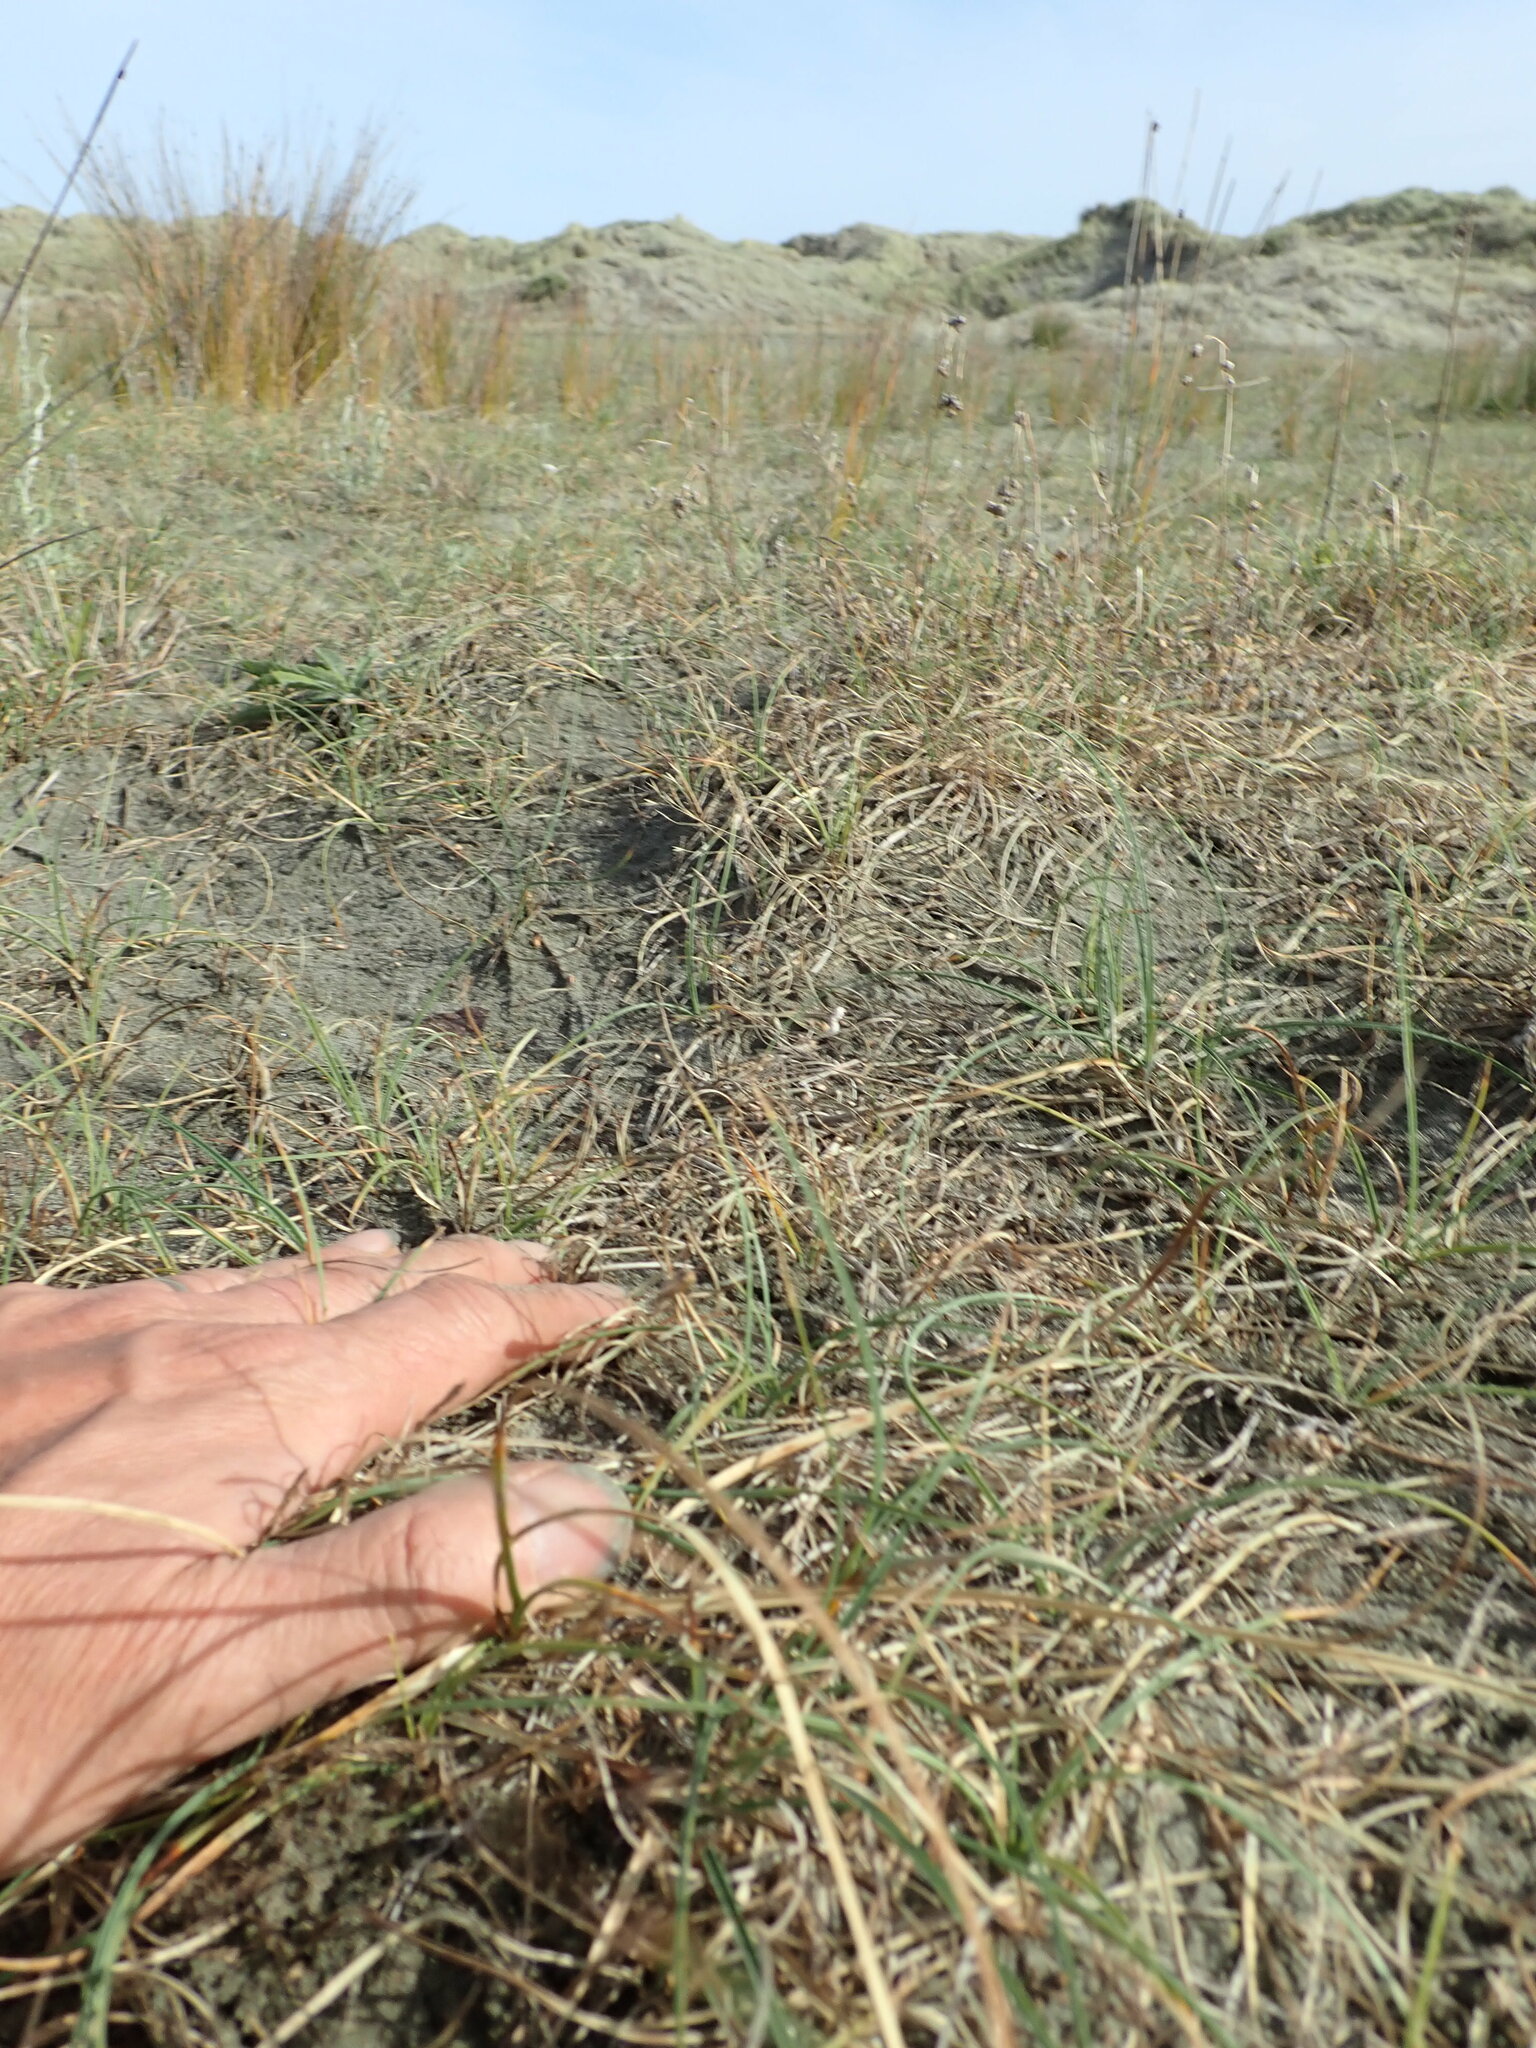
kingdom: Plantae
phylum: Tracheophyta
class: Magnoliopsida
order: Fabales
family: Fabaceae
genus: Acacia
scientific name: Acacia longifolia
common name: Sydney golden wattle
